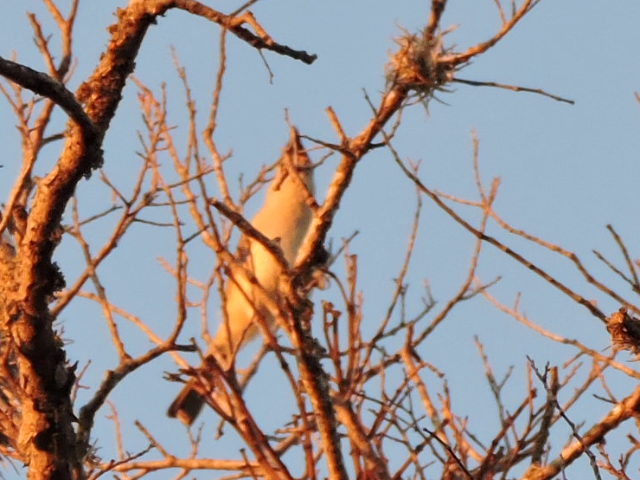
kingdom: Animalia
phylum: Chordata
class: Aves
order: Passeriformes
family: Paridae
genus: Baeolophus
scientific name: Baeolophus atricristatus
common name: Black-crested titmouse
